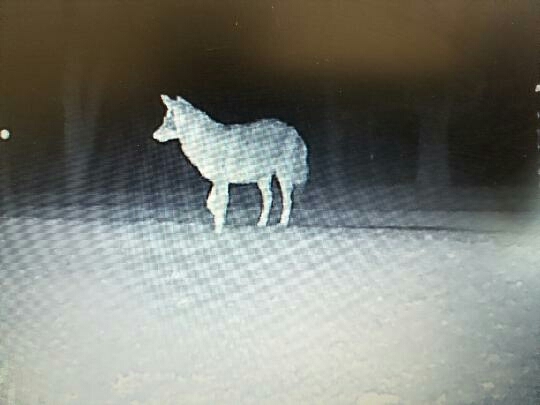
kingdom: Animalia
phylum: Chordata
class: Mammalia
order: Carnivora
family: Canidae
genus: Canis
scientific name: Canis latrans
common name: Coyote
